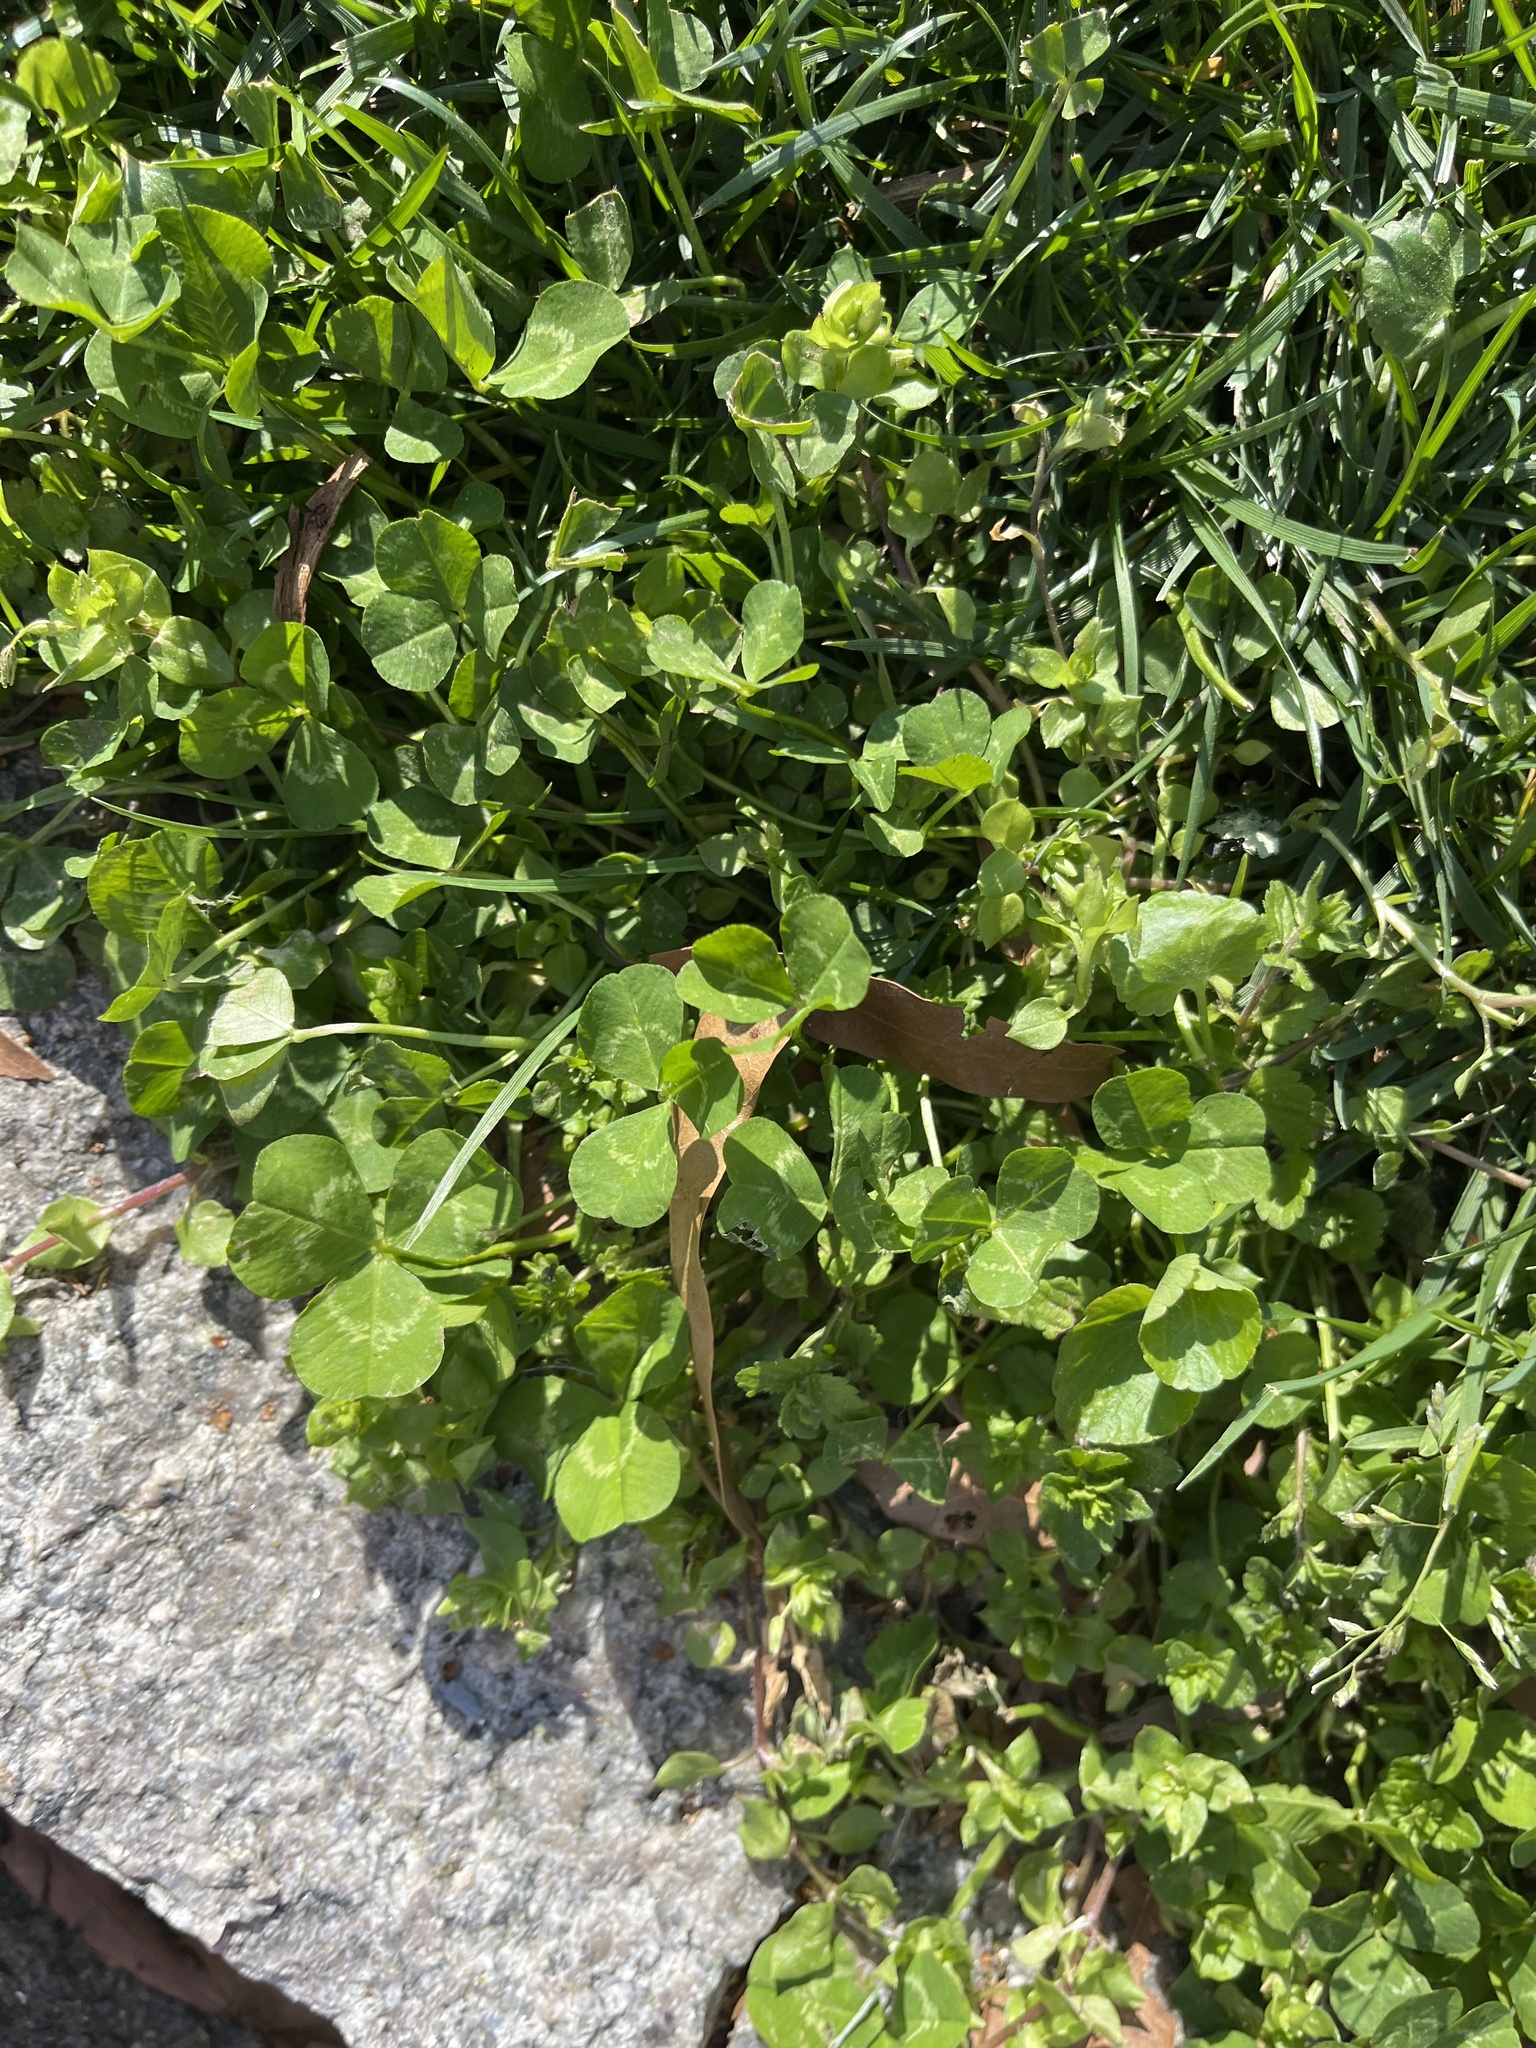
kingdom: Plantae
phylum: Tracheophyta
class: Magnoliopsida
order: Fabales
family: Fabaceae
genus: Trifolium
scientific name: Trifolium repens
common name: White clover
